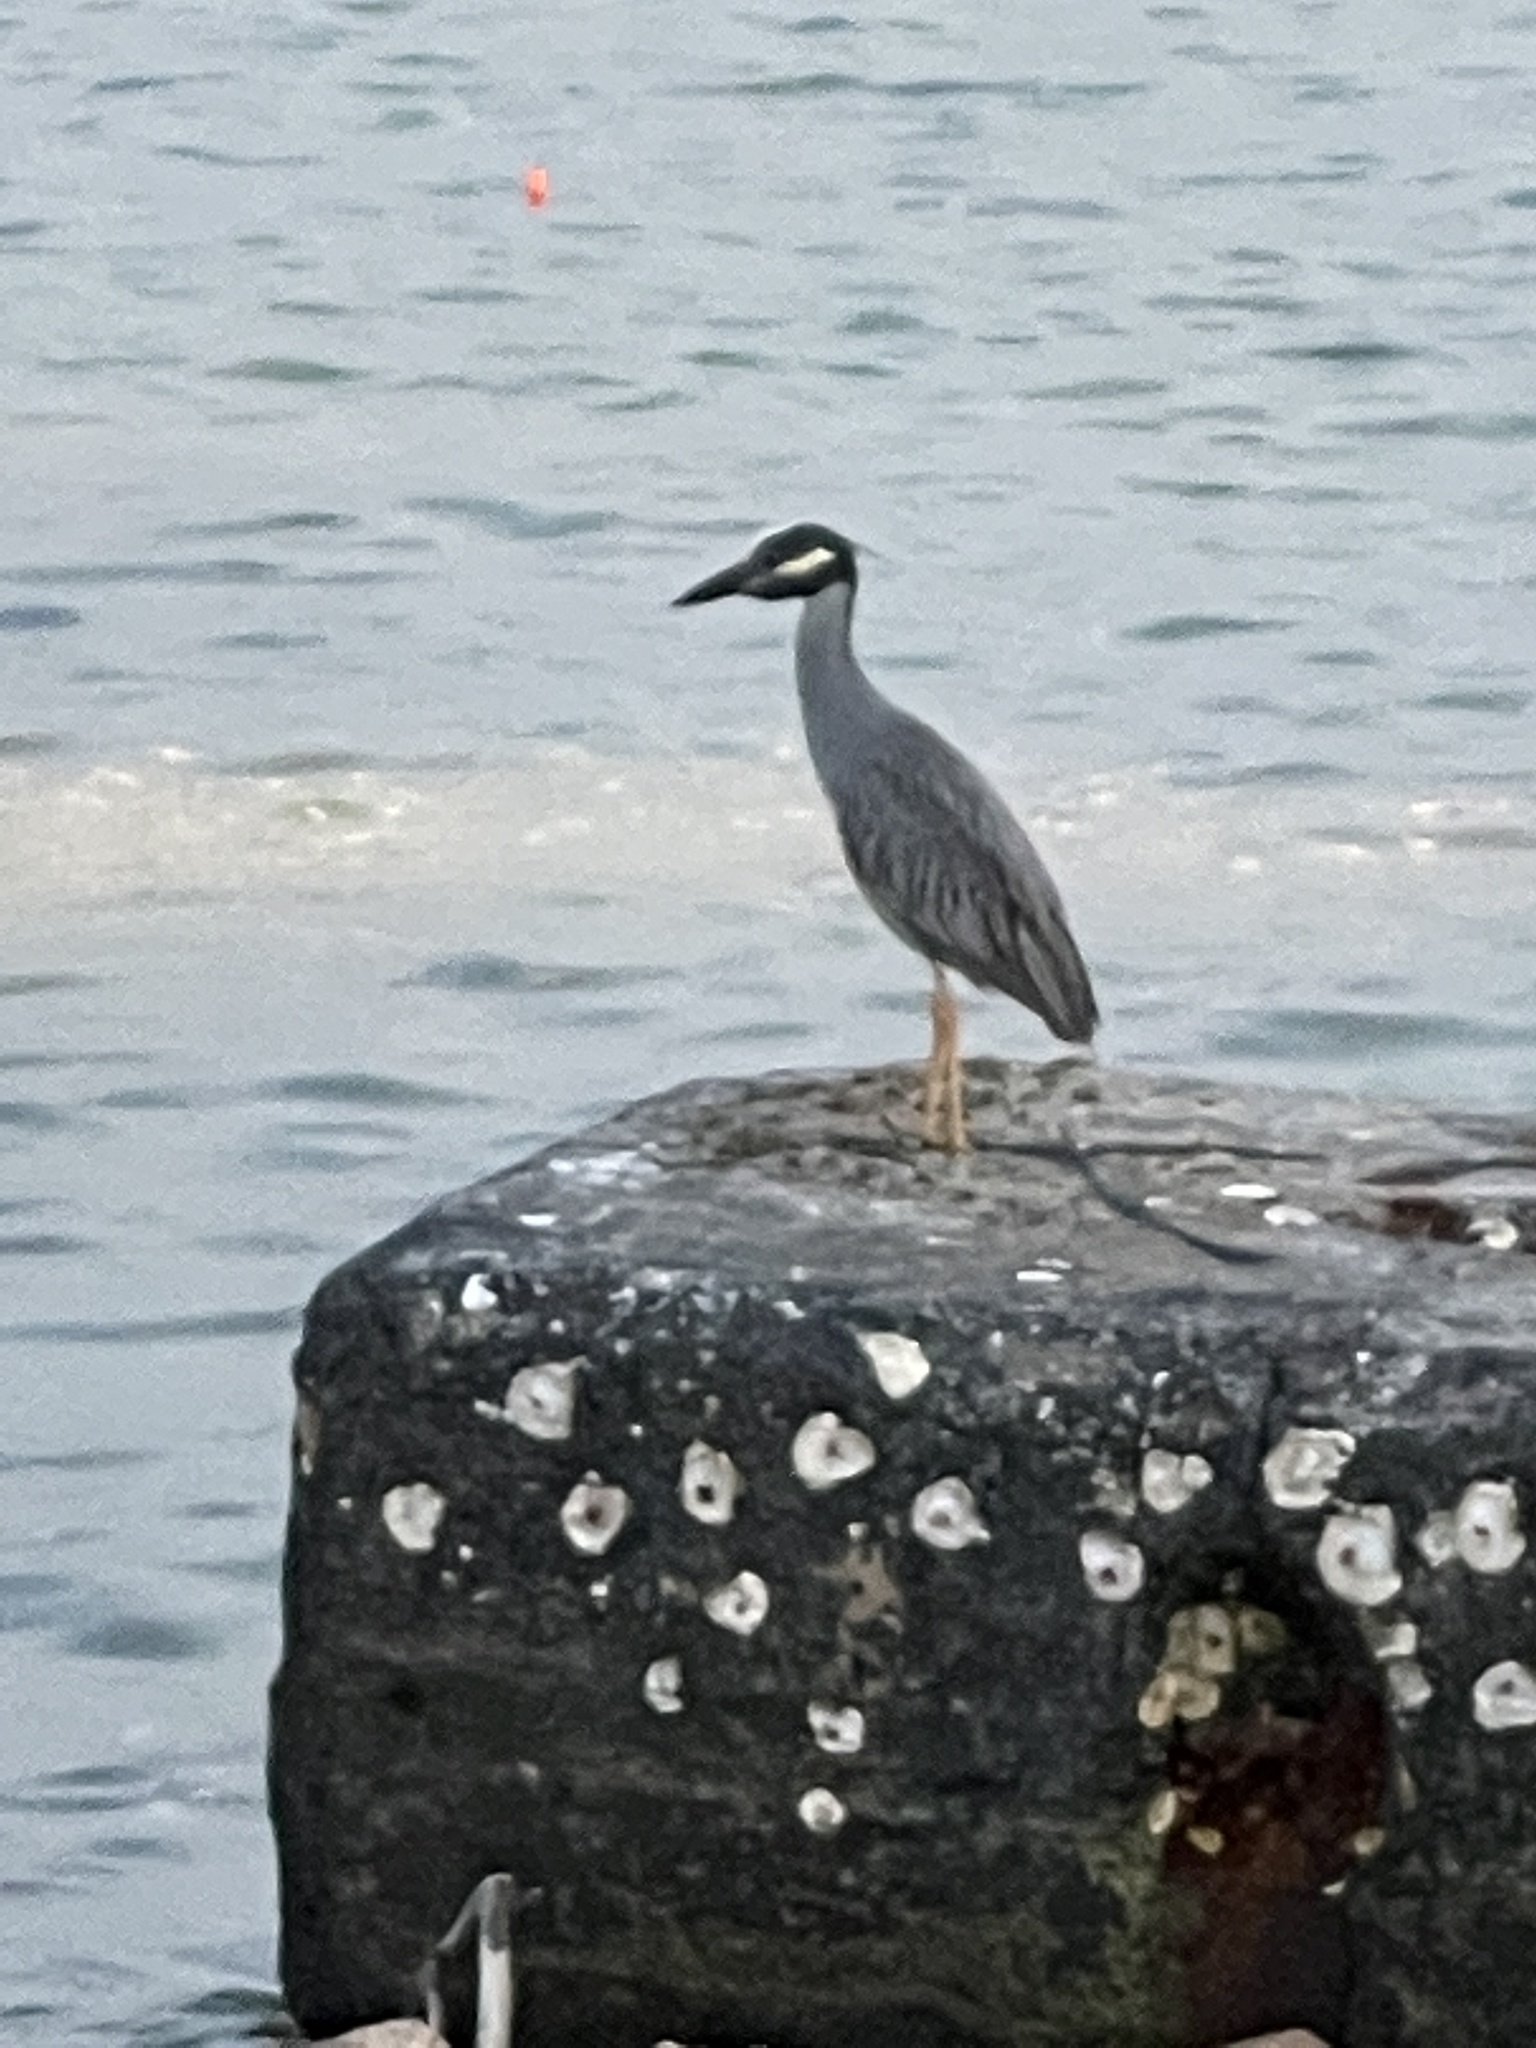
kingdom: Animalia
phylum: Chordata
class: Aves
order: Pelecaniformes
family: Ardeidae
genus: Nyctanassa
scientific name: Nyctanassa violacea
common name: Yellow-crowned night heron
